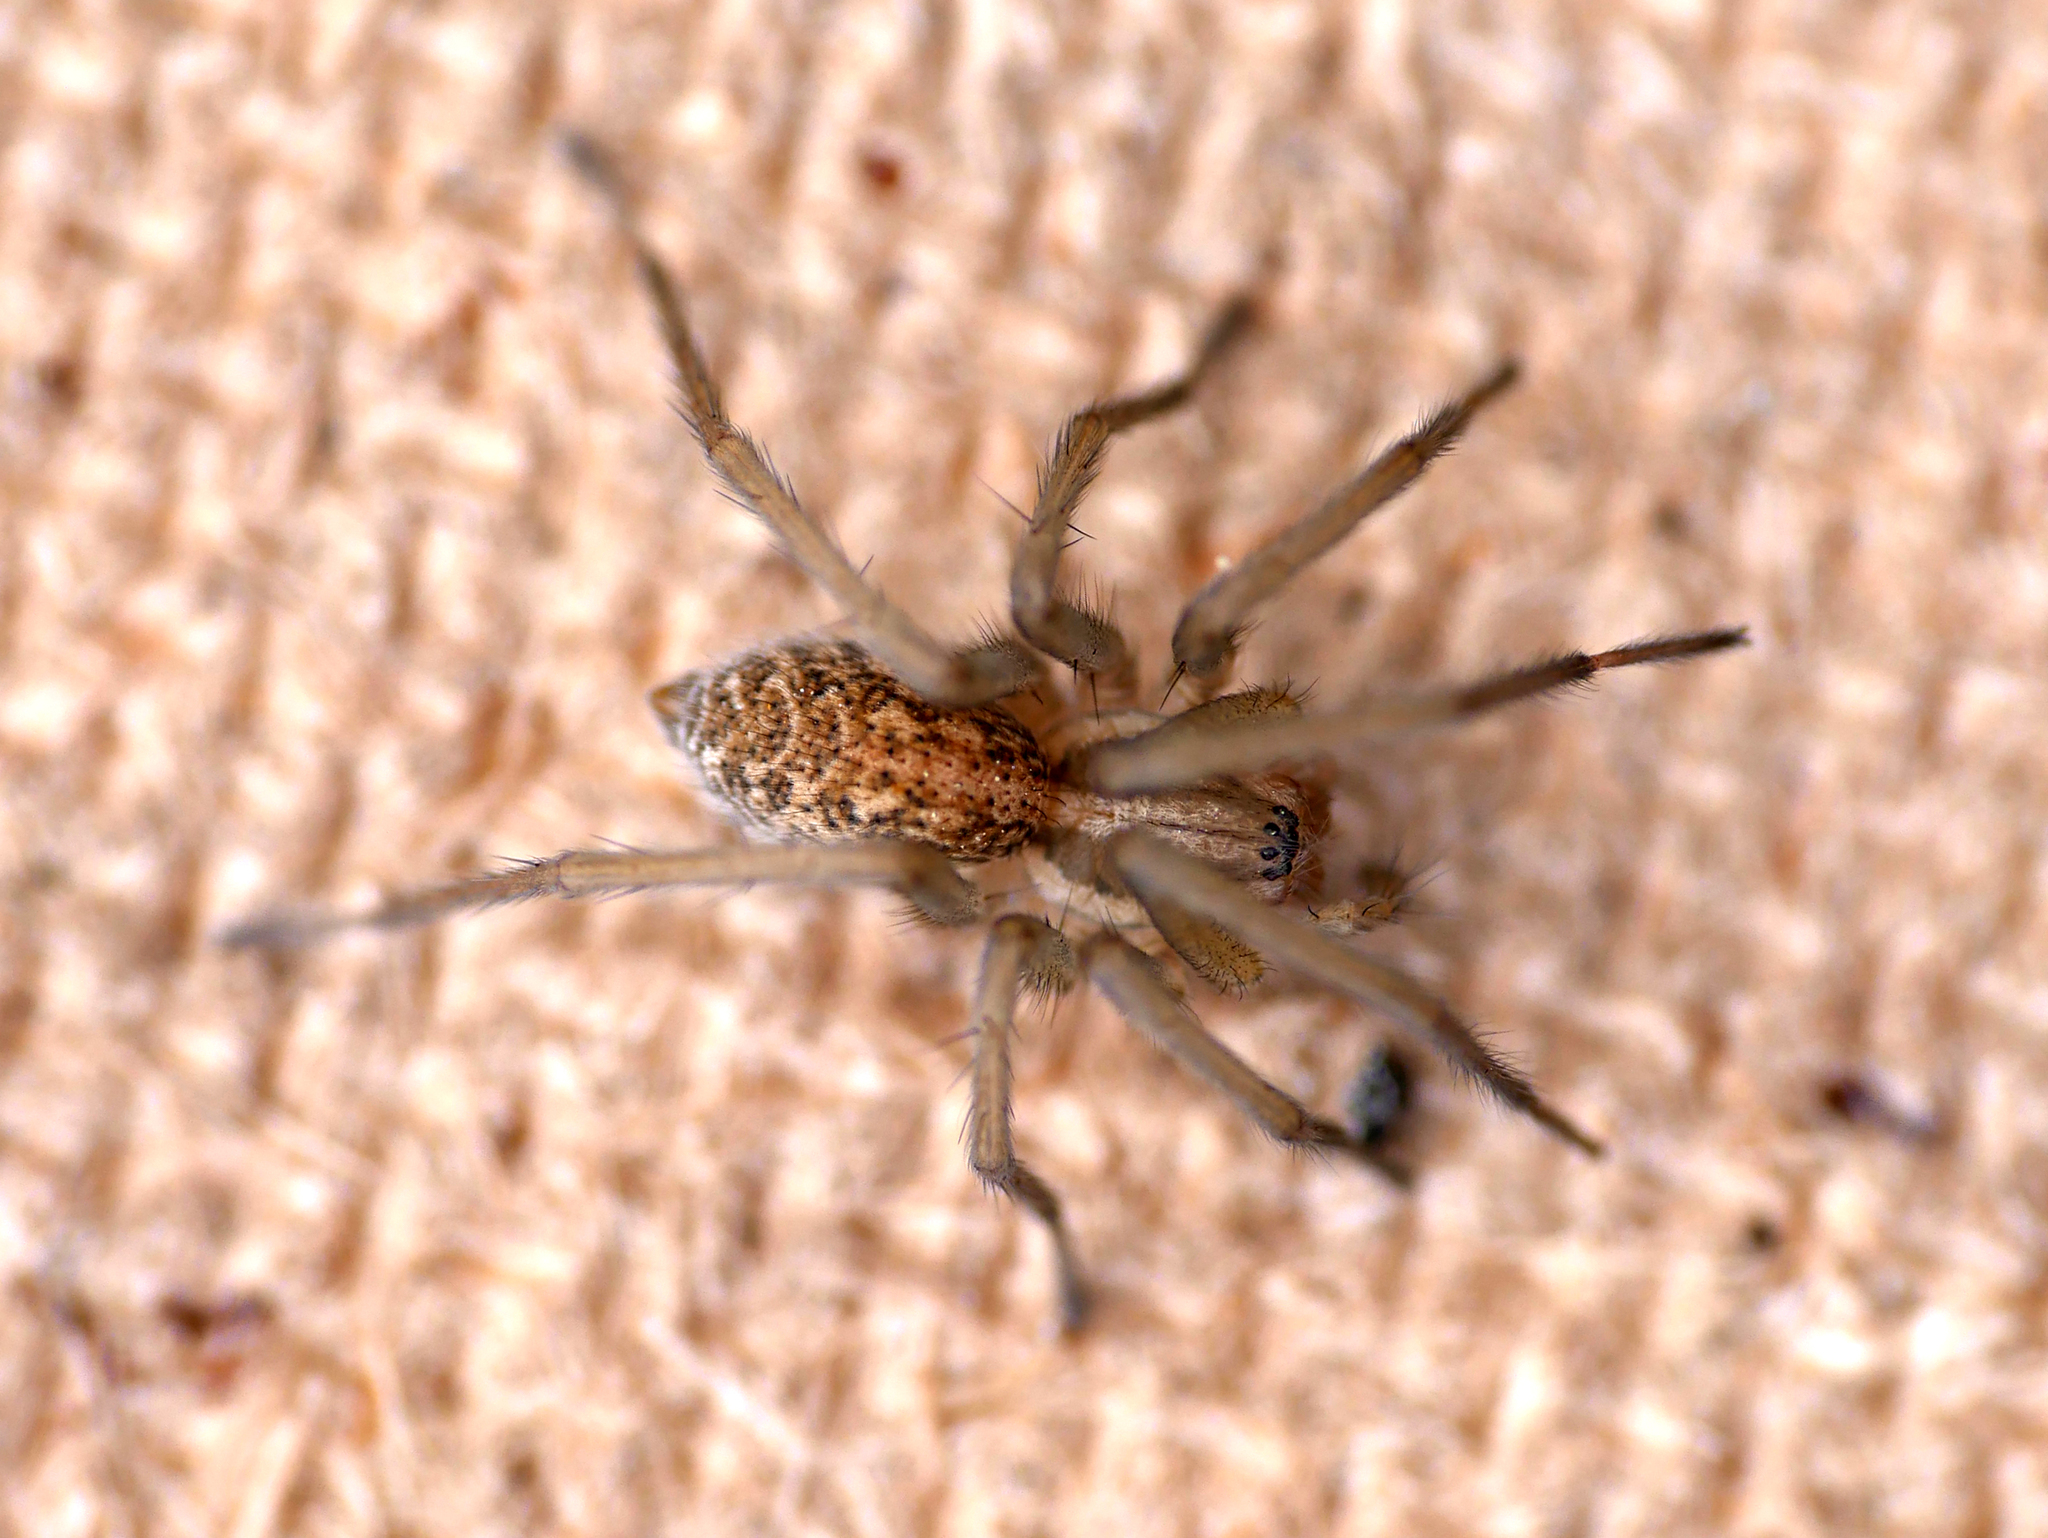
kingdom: Animalia
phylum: Arthropoda
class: Arachnida
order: Araneae
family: Agelenidae
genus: Eratigena
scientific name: Eratigena agrestis
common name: Hobo spider
